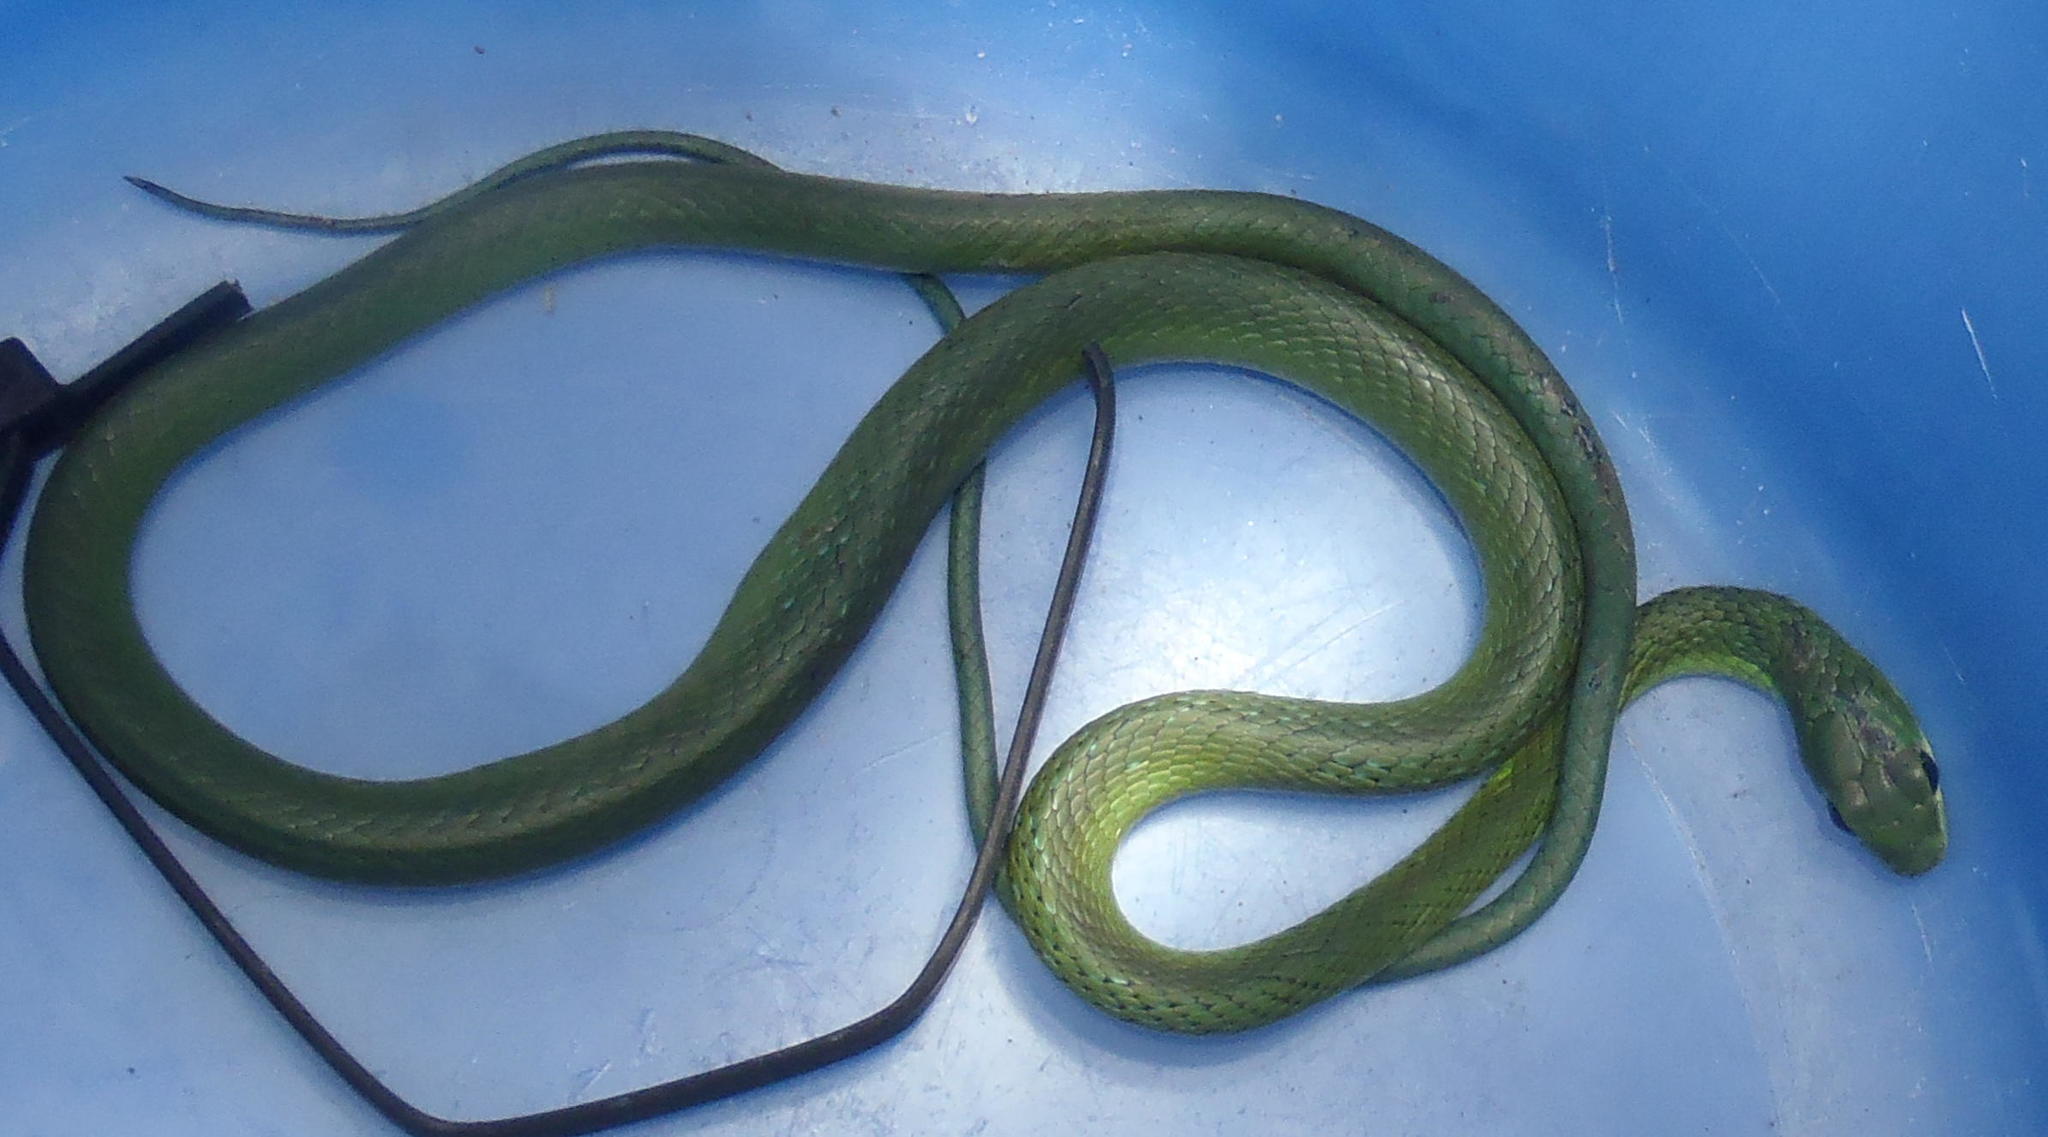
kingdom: Animalia
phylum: Chordata
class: Squamata
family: Colubridae
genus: Philothamnus
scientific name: Philothamnus occidentalis
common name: Western natal green snake
